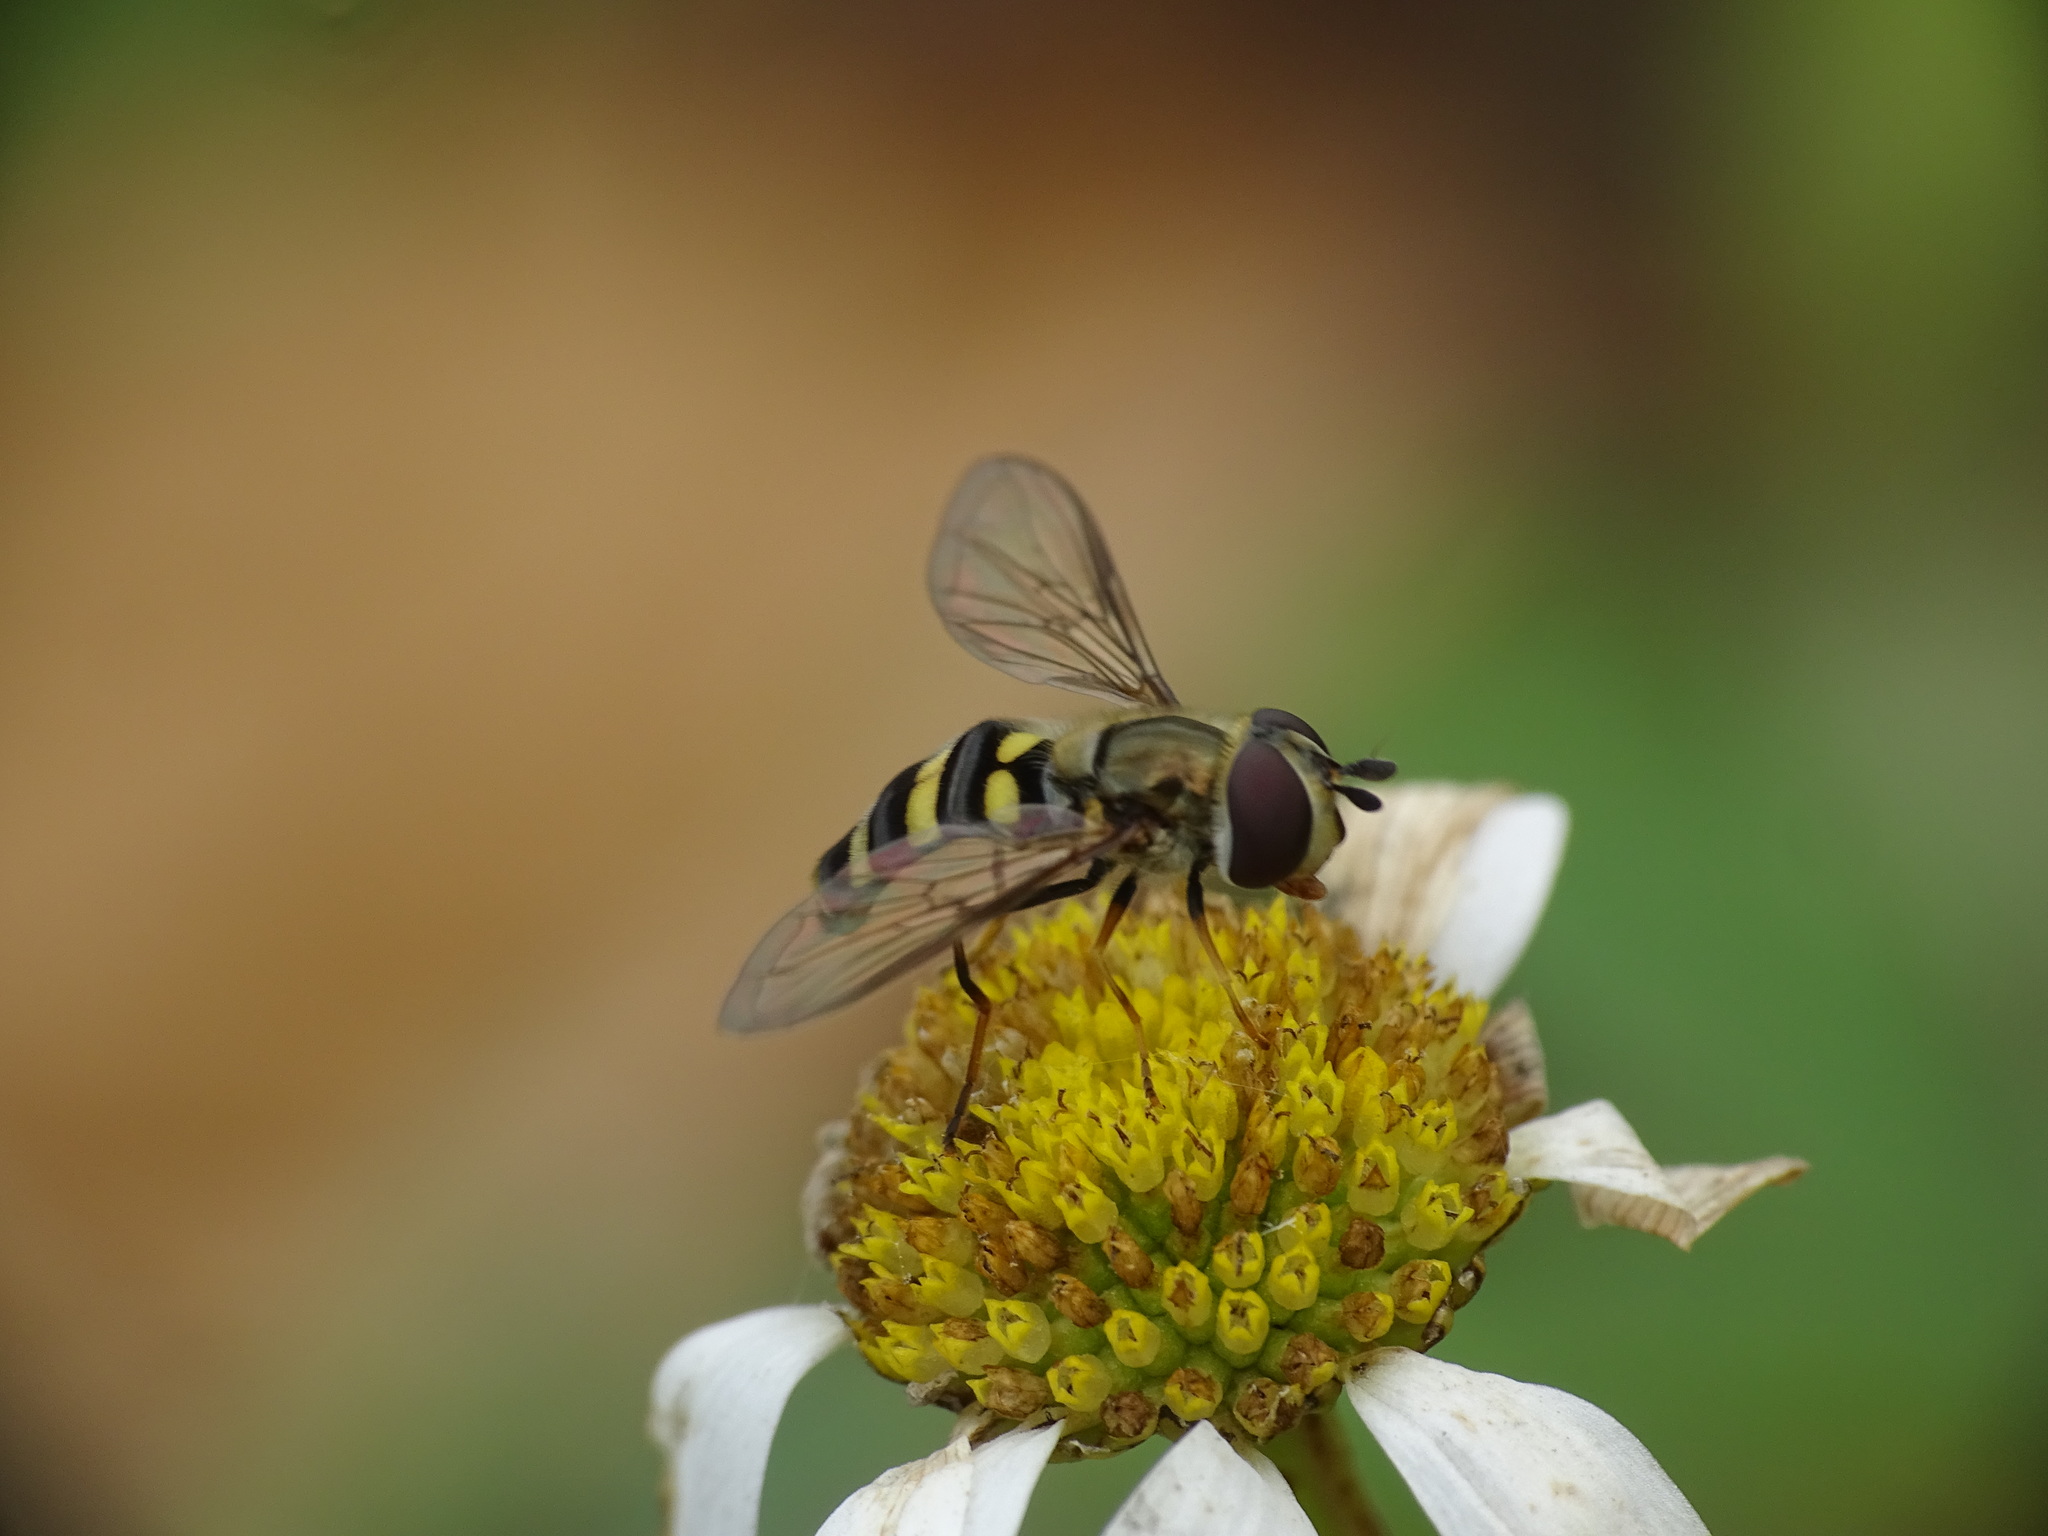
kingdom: Animalia
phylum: Arthropoda
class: Insecta
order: Diptera
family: Syrphidae
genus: Eupeodes
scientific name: Eupeodes
